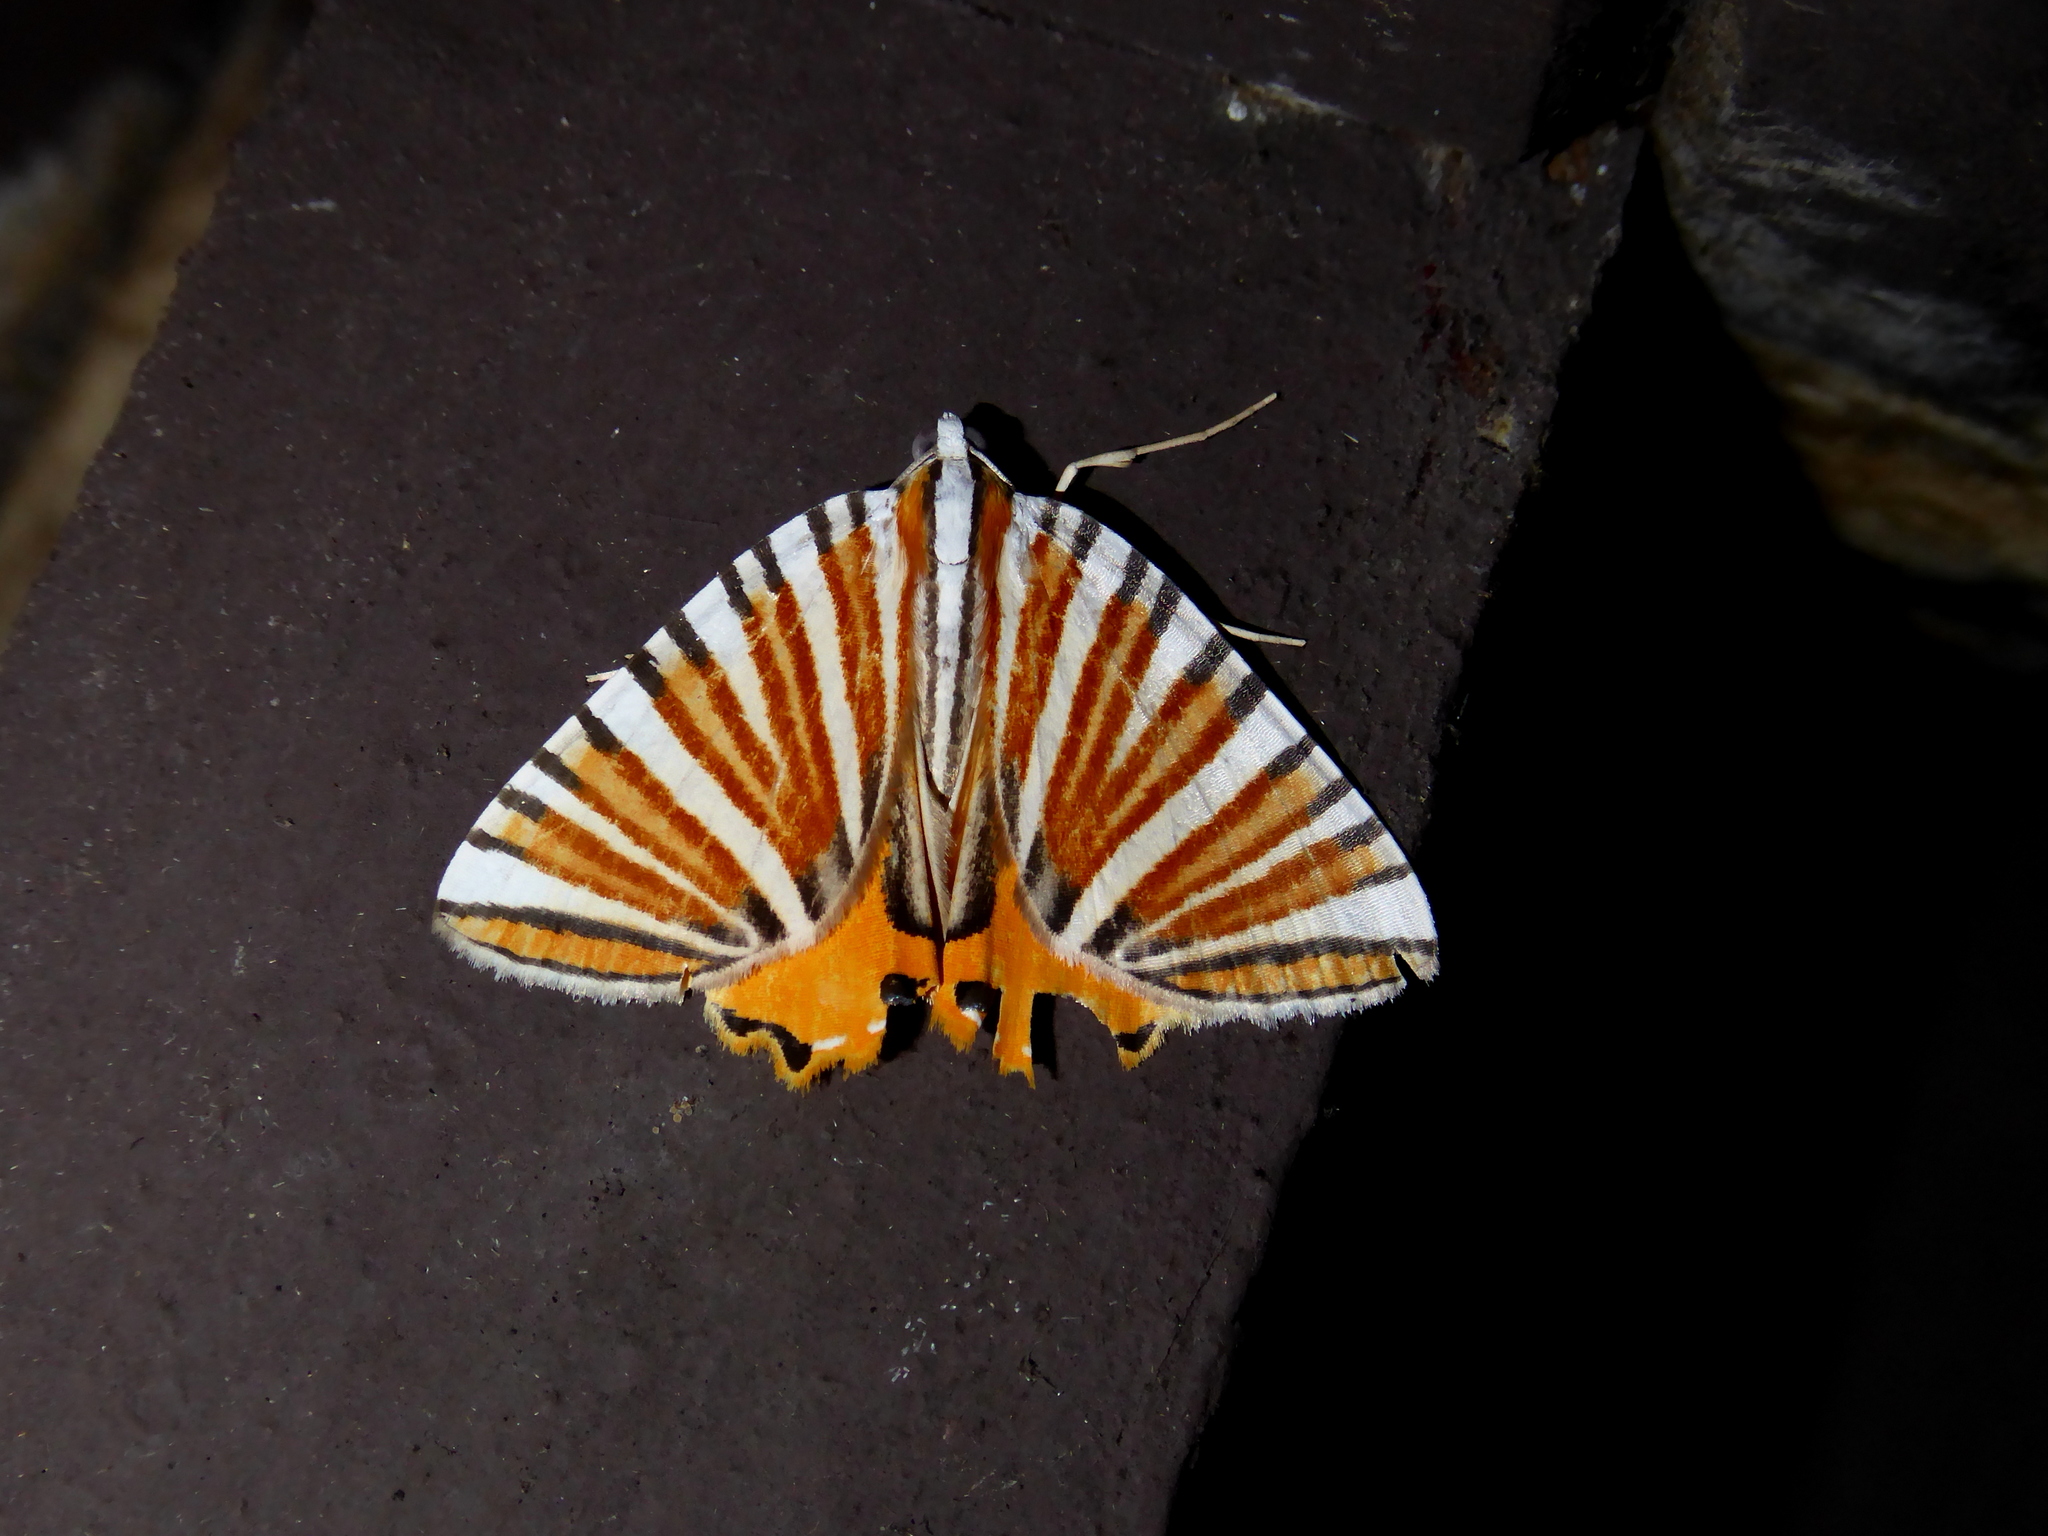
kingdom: Animalia
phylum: Arthropoda
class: Insecta
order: Lepidoptera
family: Geometridae
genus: Pityeja
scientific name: Pityeja histrionaria
